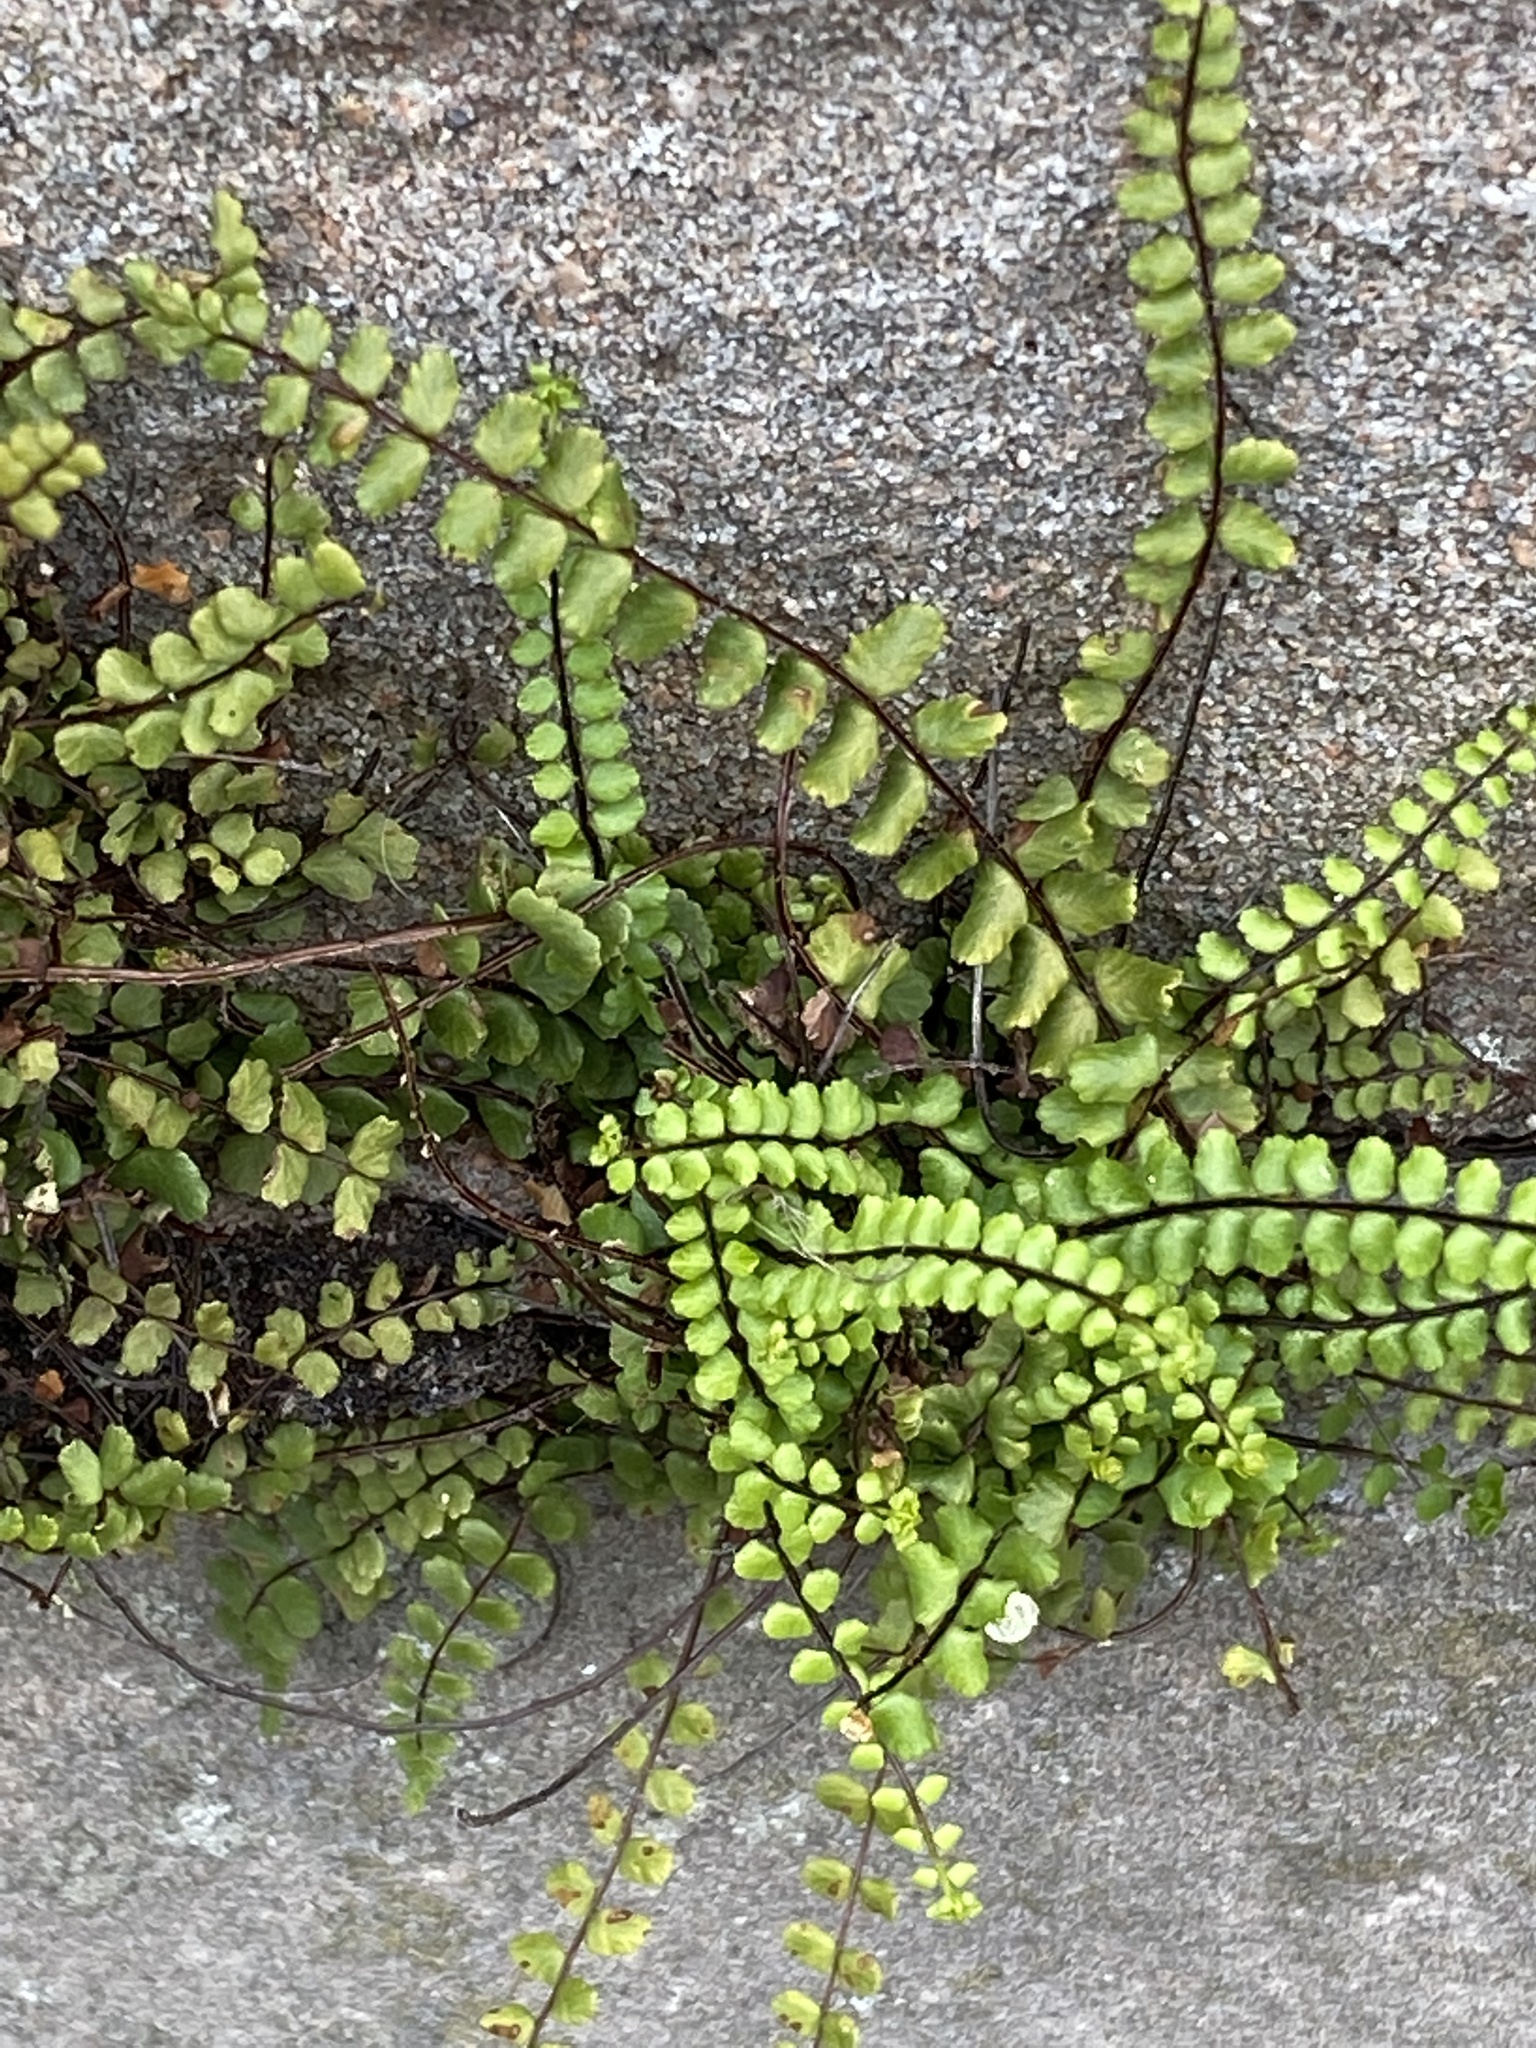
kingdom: Plantae
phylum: Tracheophyta
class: Polypodiopsida
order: Polypodiales
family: Aspleniaceae
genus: Asplenium
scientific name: Asplenium trichomanes
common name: Maidenhair spleenwort
